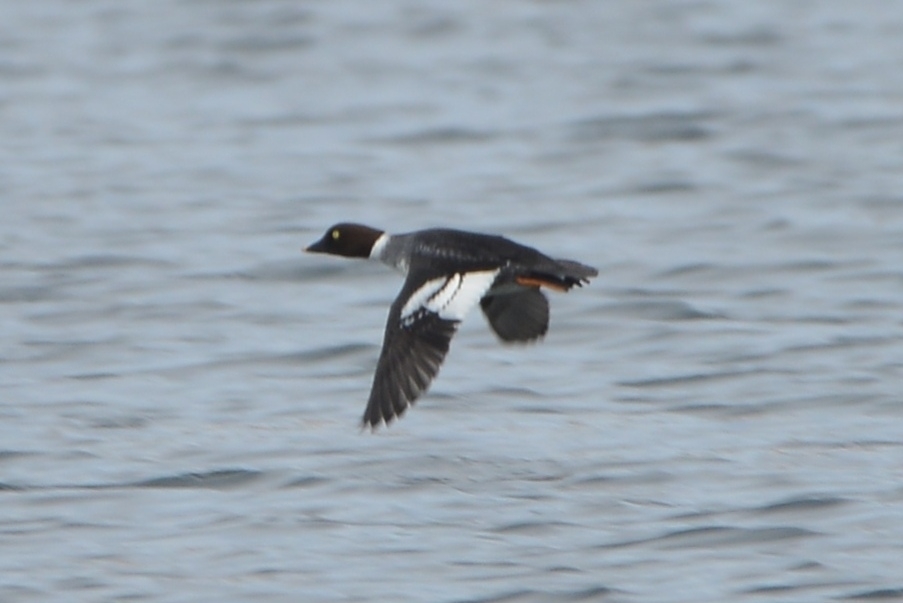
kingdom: Animalia
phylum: Chordata
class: Aves
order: Anseriformes
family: Anatidae
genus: Bucephala
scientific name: Bucephala clangula
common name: Common goldeneye
